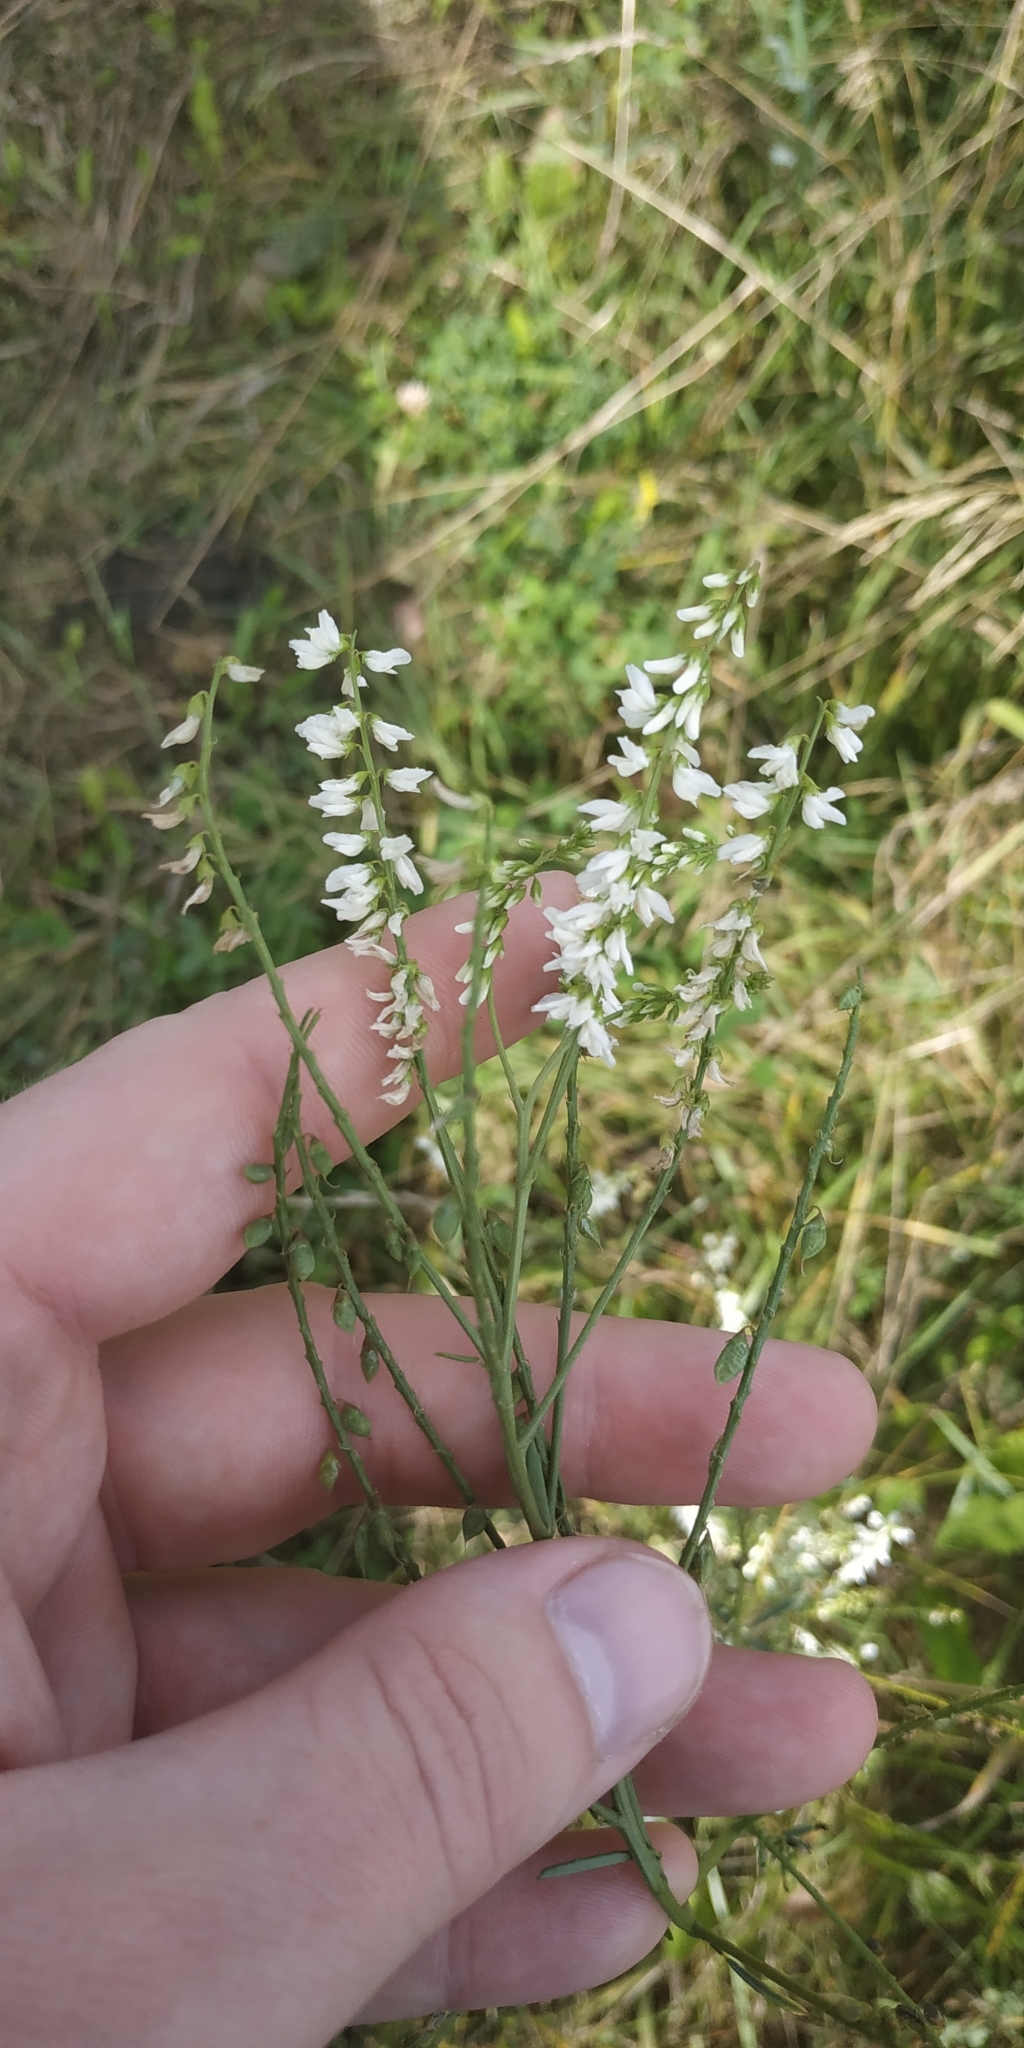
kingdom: Plantae
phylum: Tracheophyta
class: Magnoliopsida
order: Fabales
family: Fabaceae
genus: Melilotus
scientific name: Melilotus albus
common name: White melilot
